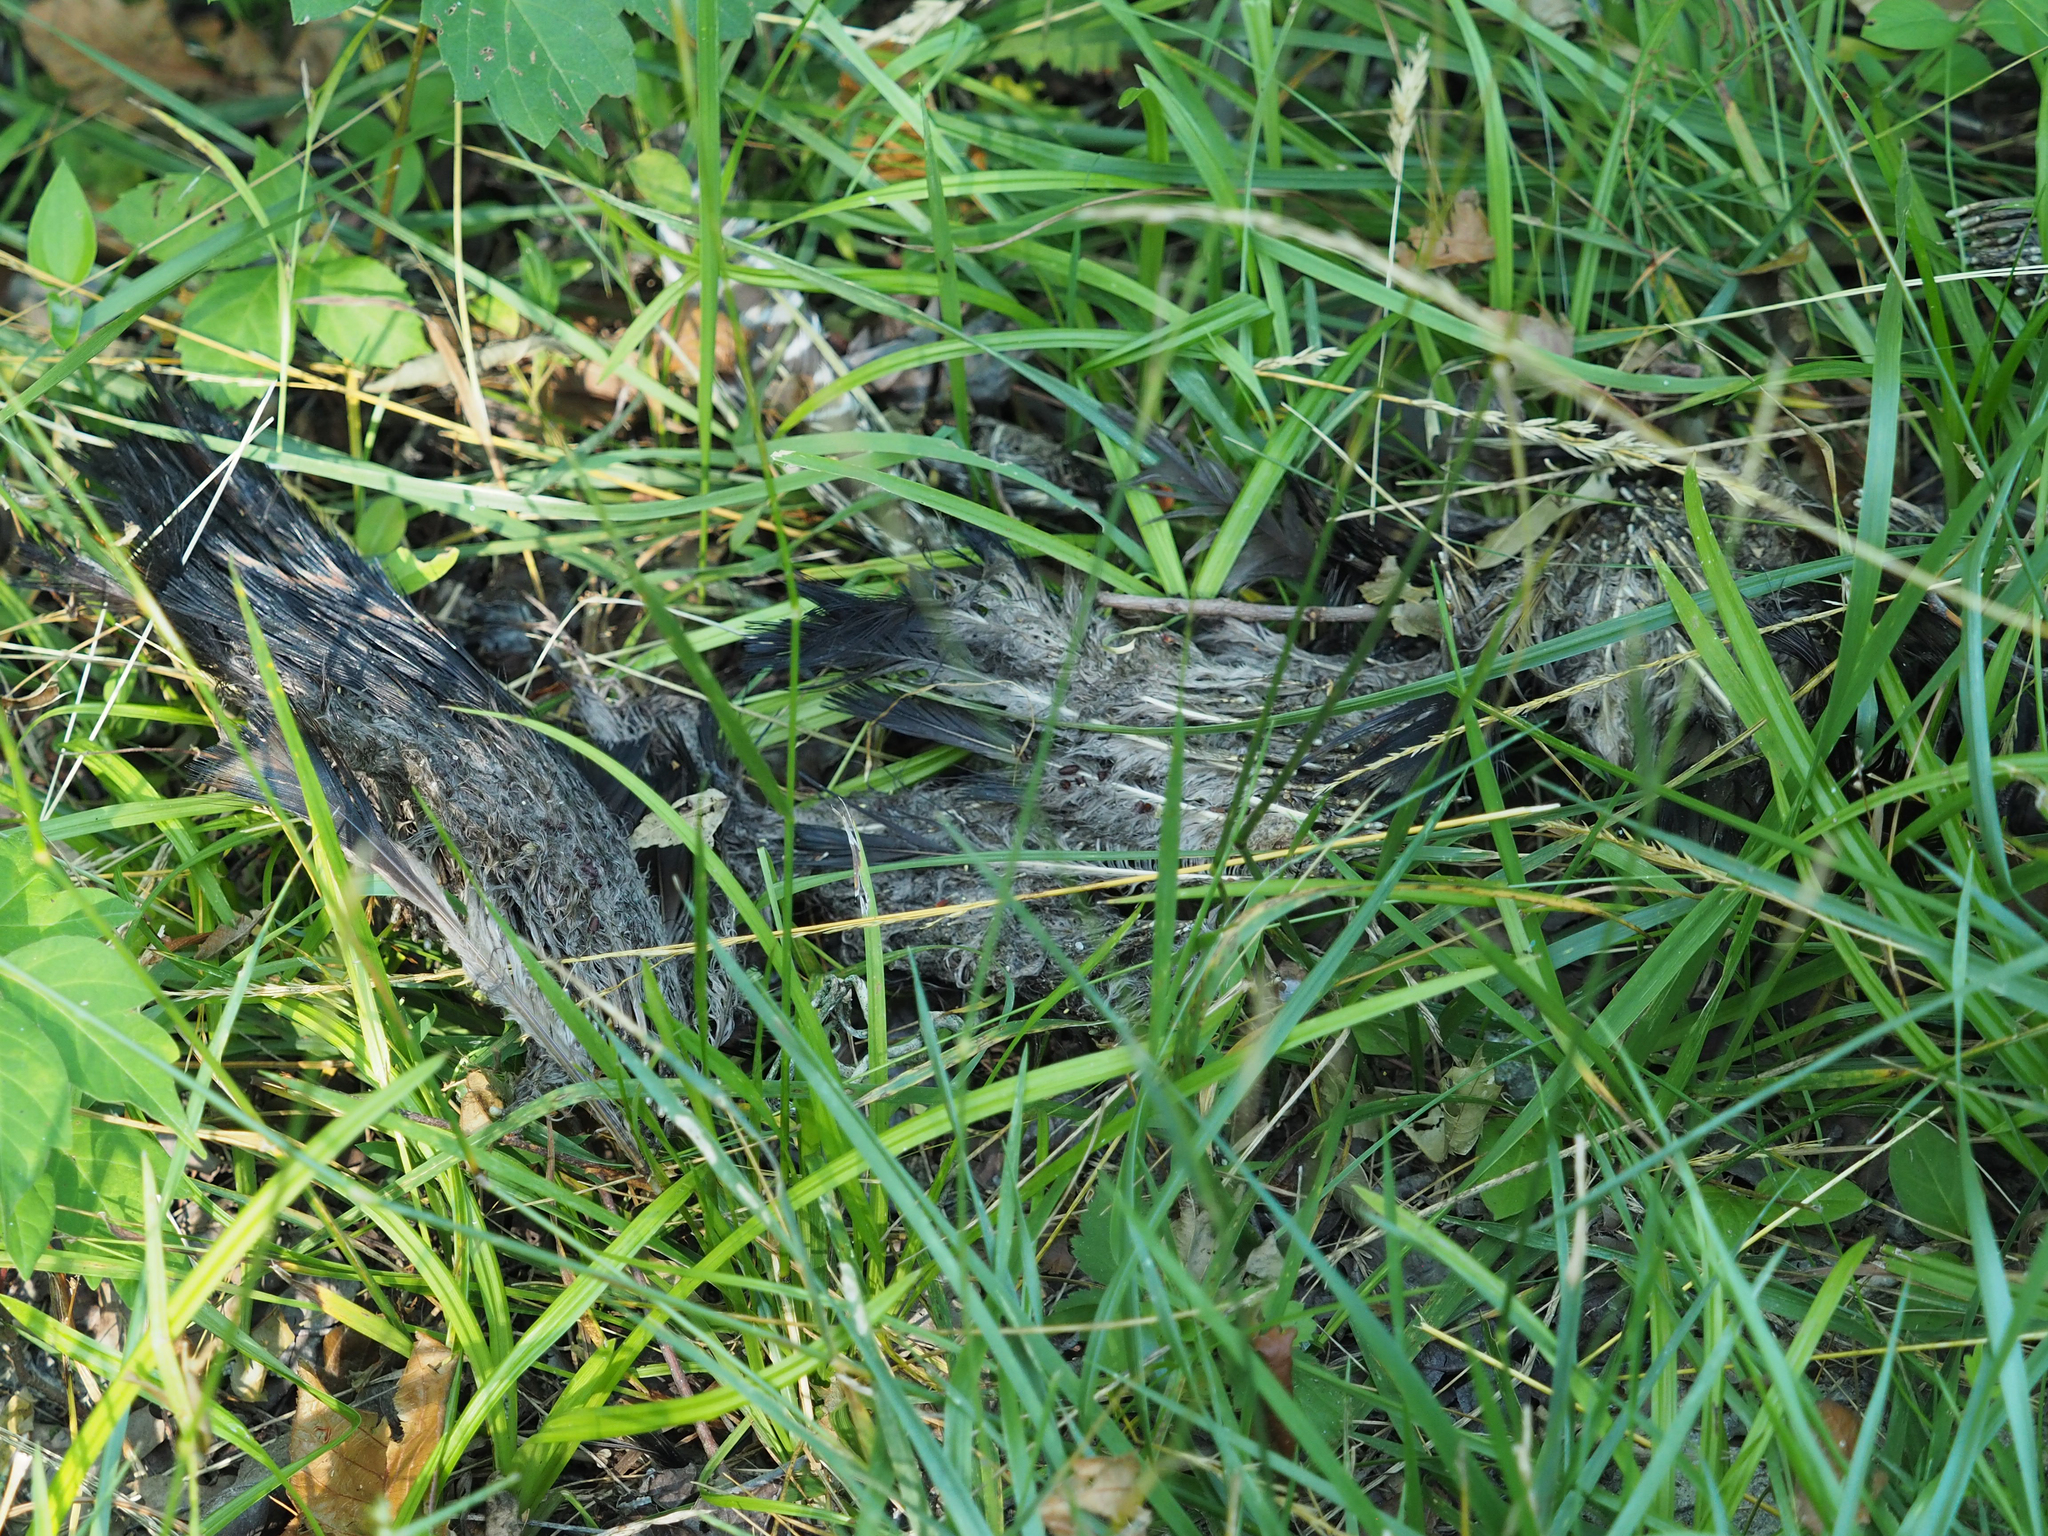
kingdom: Animalia
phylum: Chordata
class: Aves
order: Galliformes
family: Phasianidae
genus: Meleagris
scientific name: Meleagris gallopavo
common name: Wild turkey
